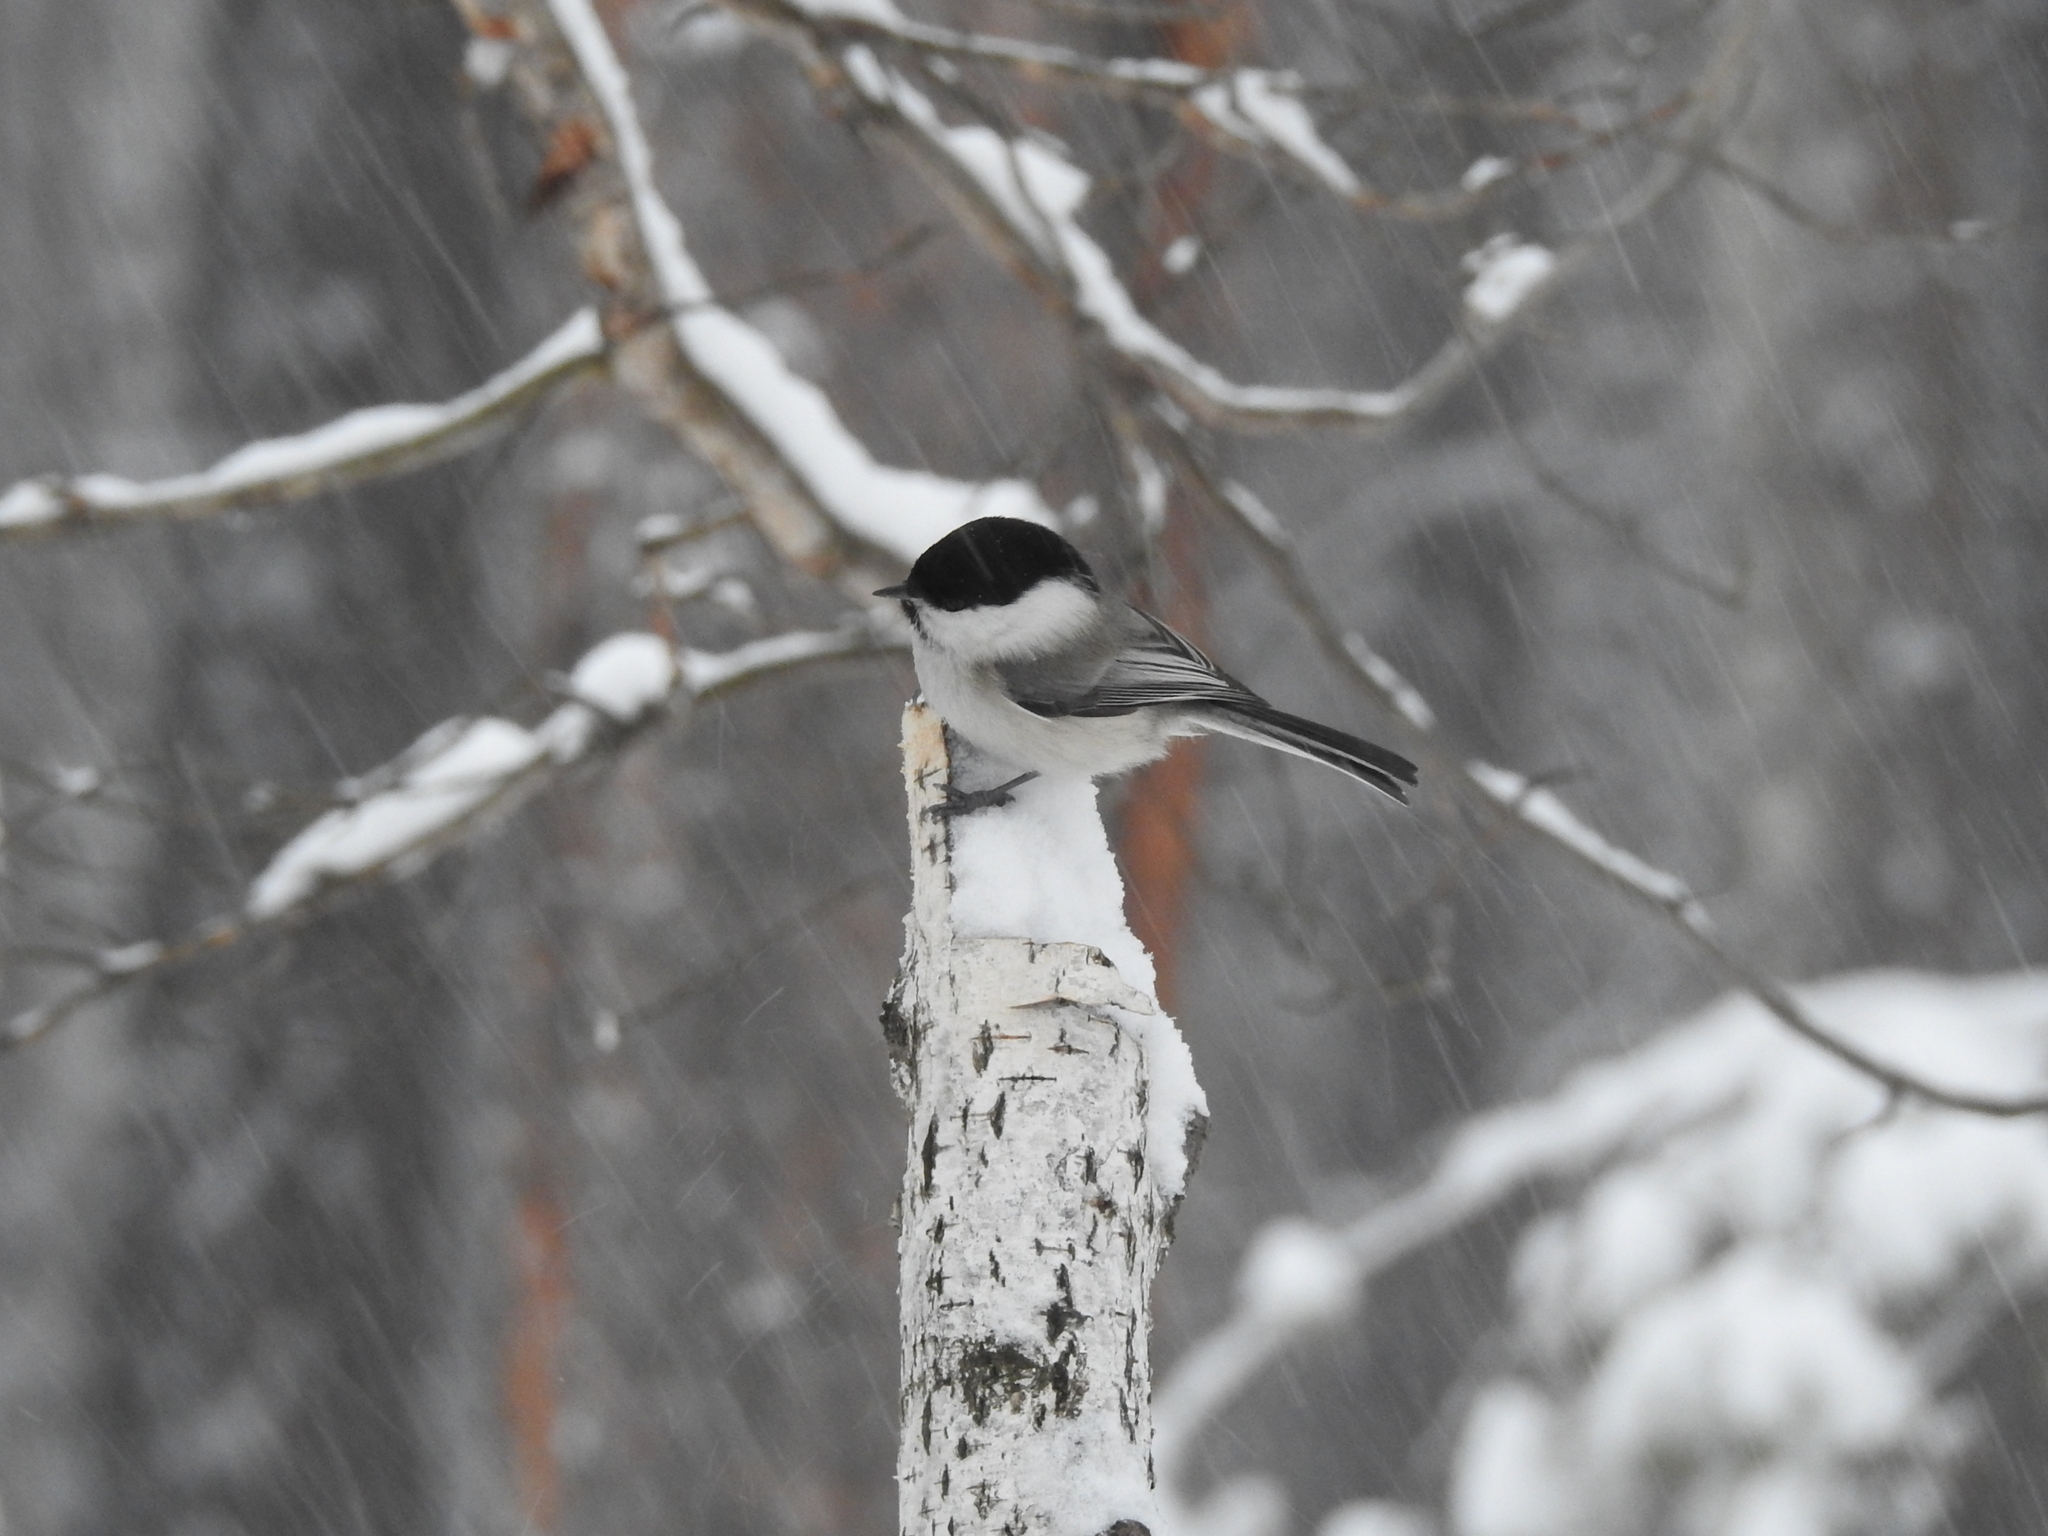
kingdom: Animalia
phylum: Chordata
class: Aves
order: Passeriformes
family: Paridae
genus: Poecile
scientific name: Poecile montanus
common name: Willow tit
